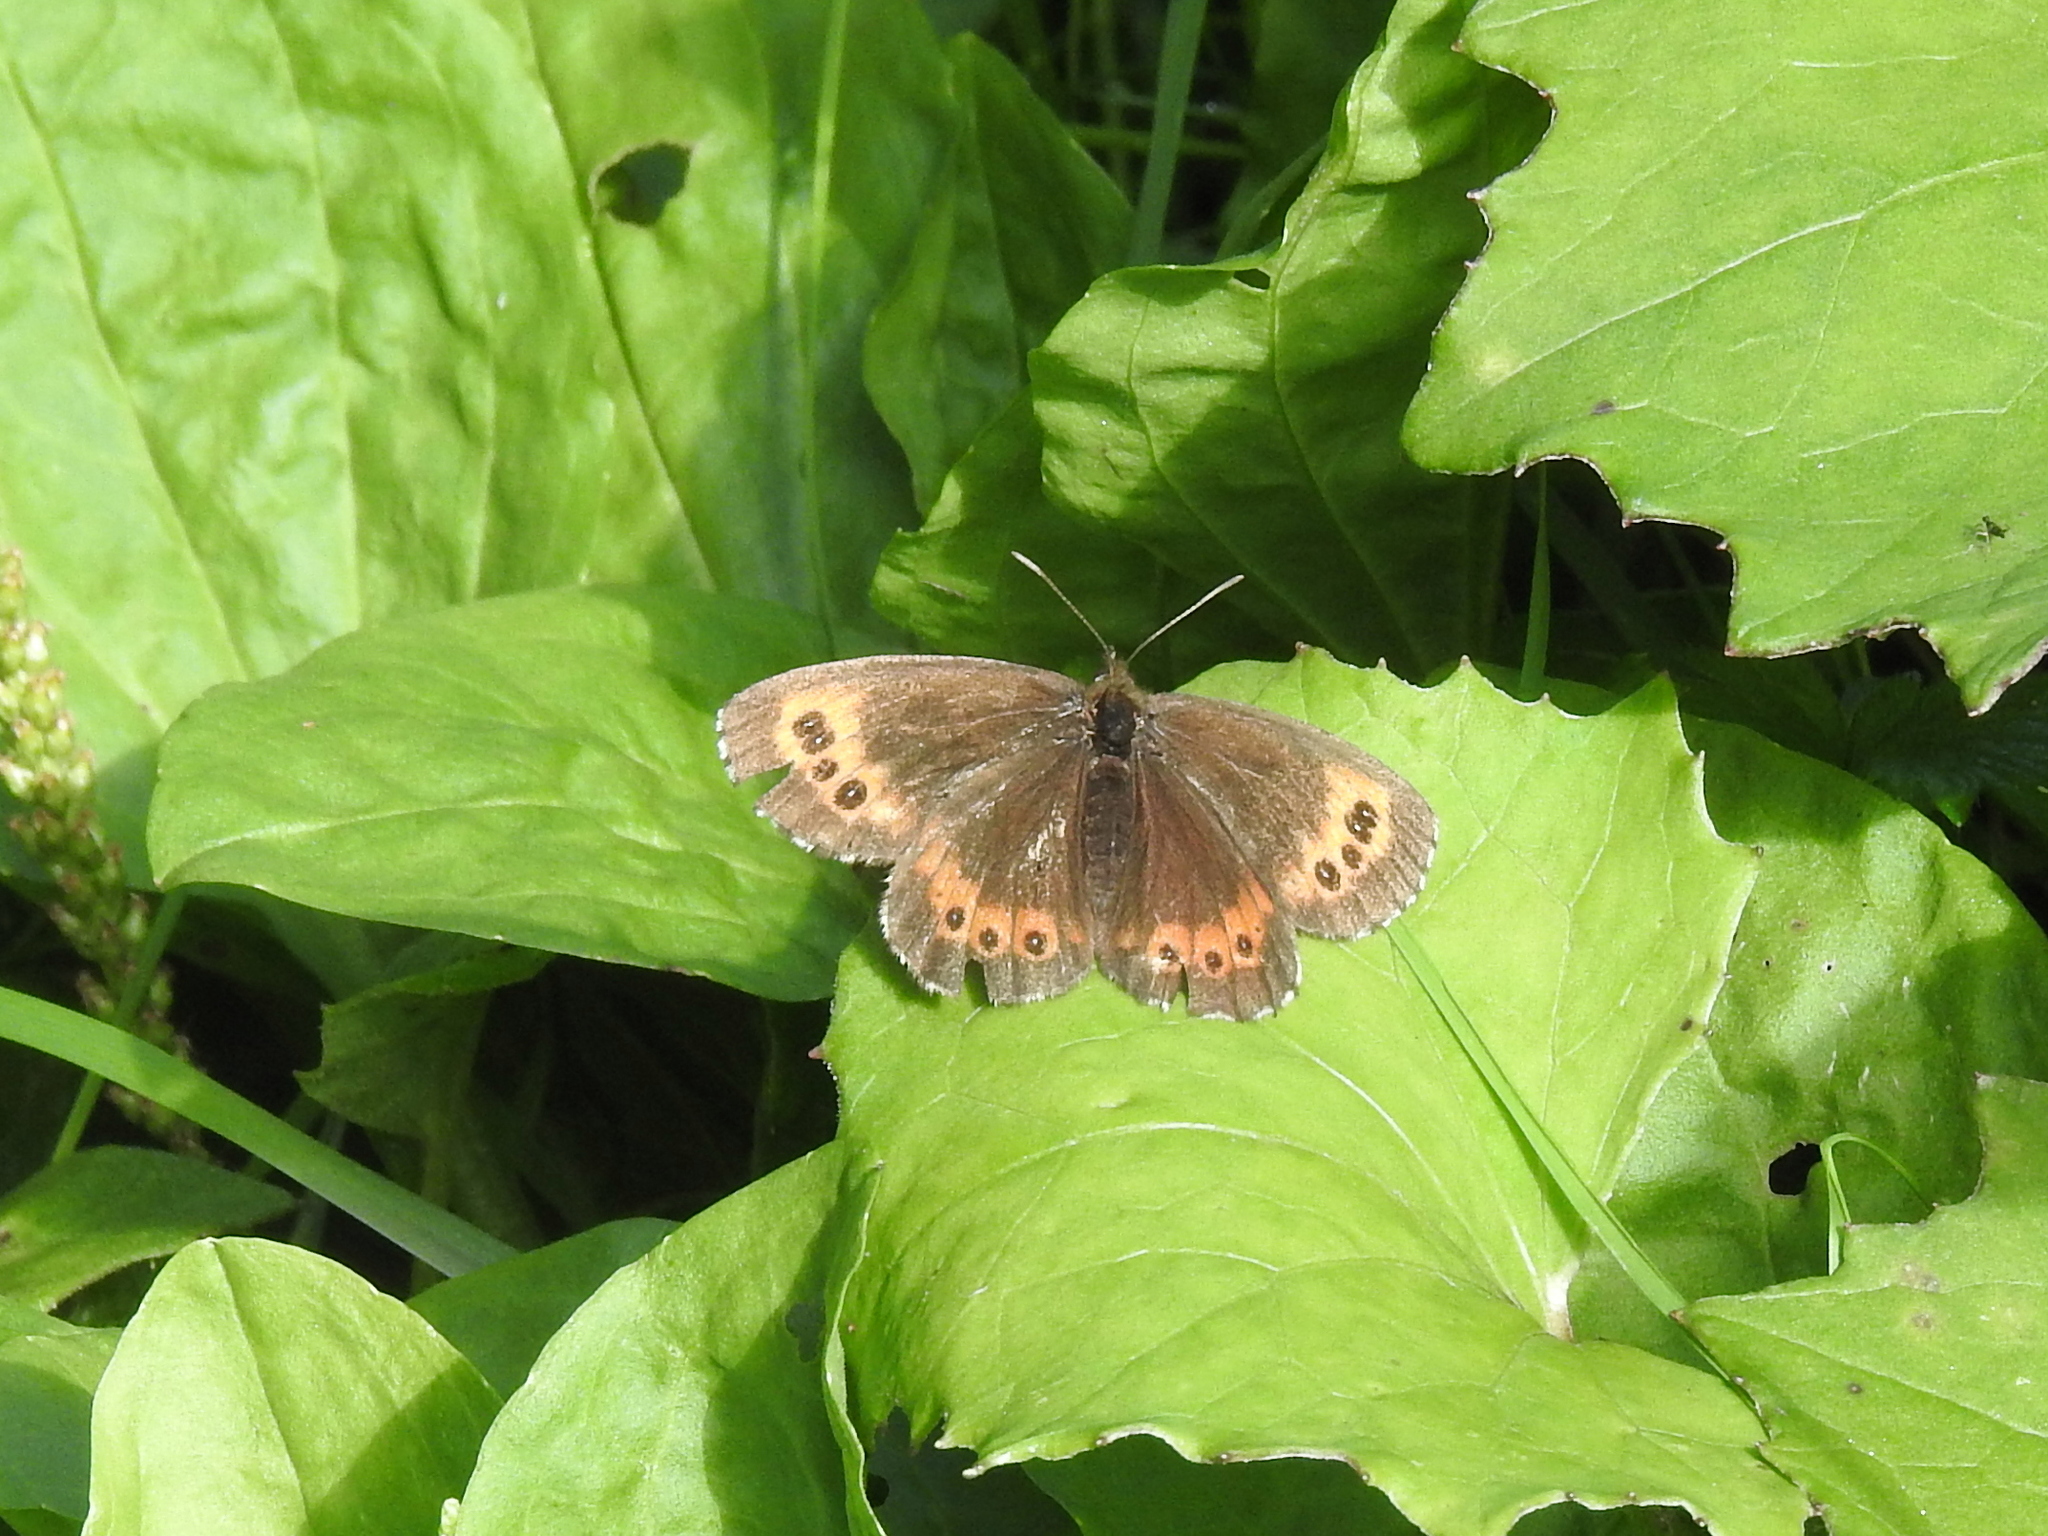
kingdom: Animalia
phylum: Arthropoda
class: Insecta
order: Lepidoptera
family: Nymphalidae
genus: Erebia
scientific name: Erebia ligea
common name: Arran brown
